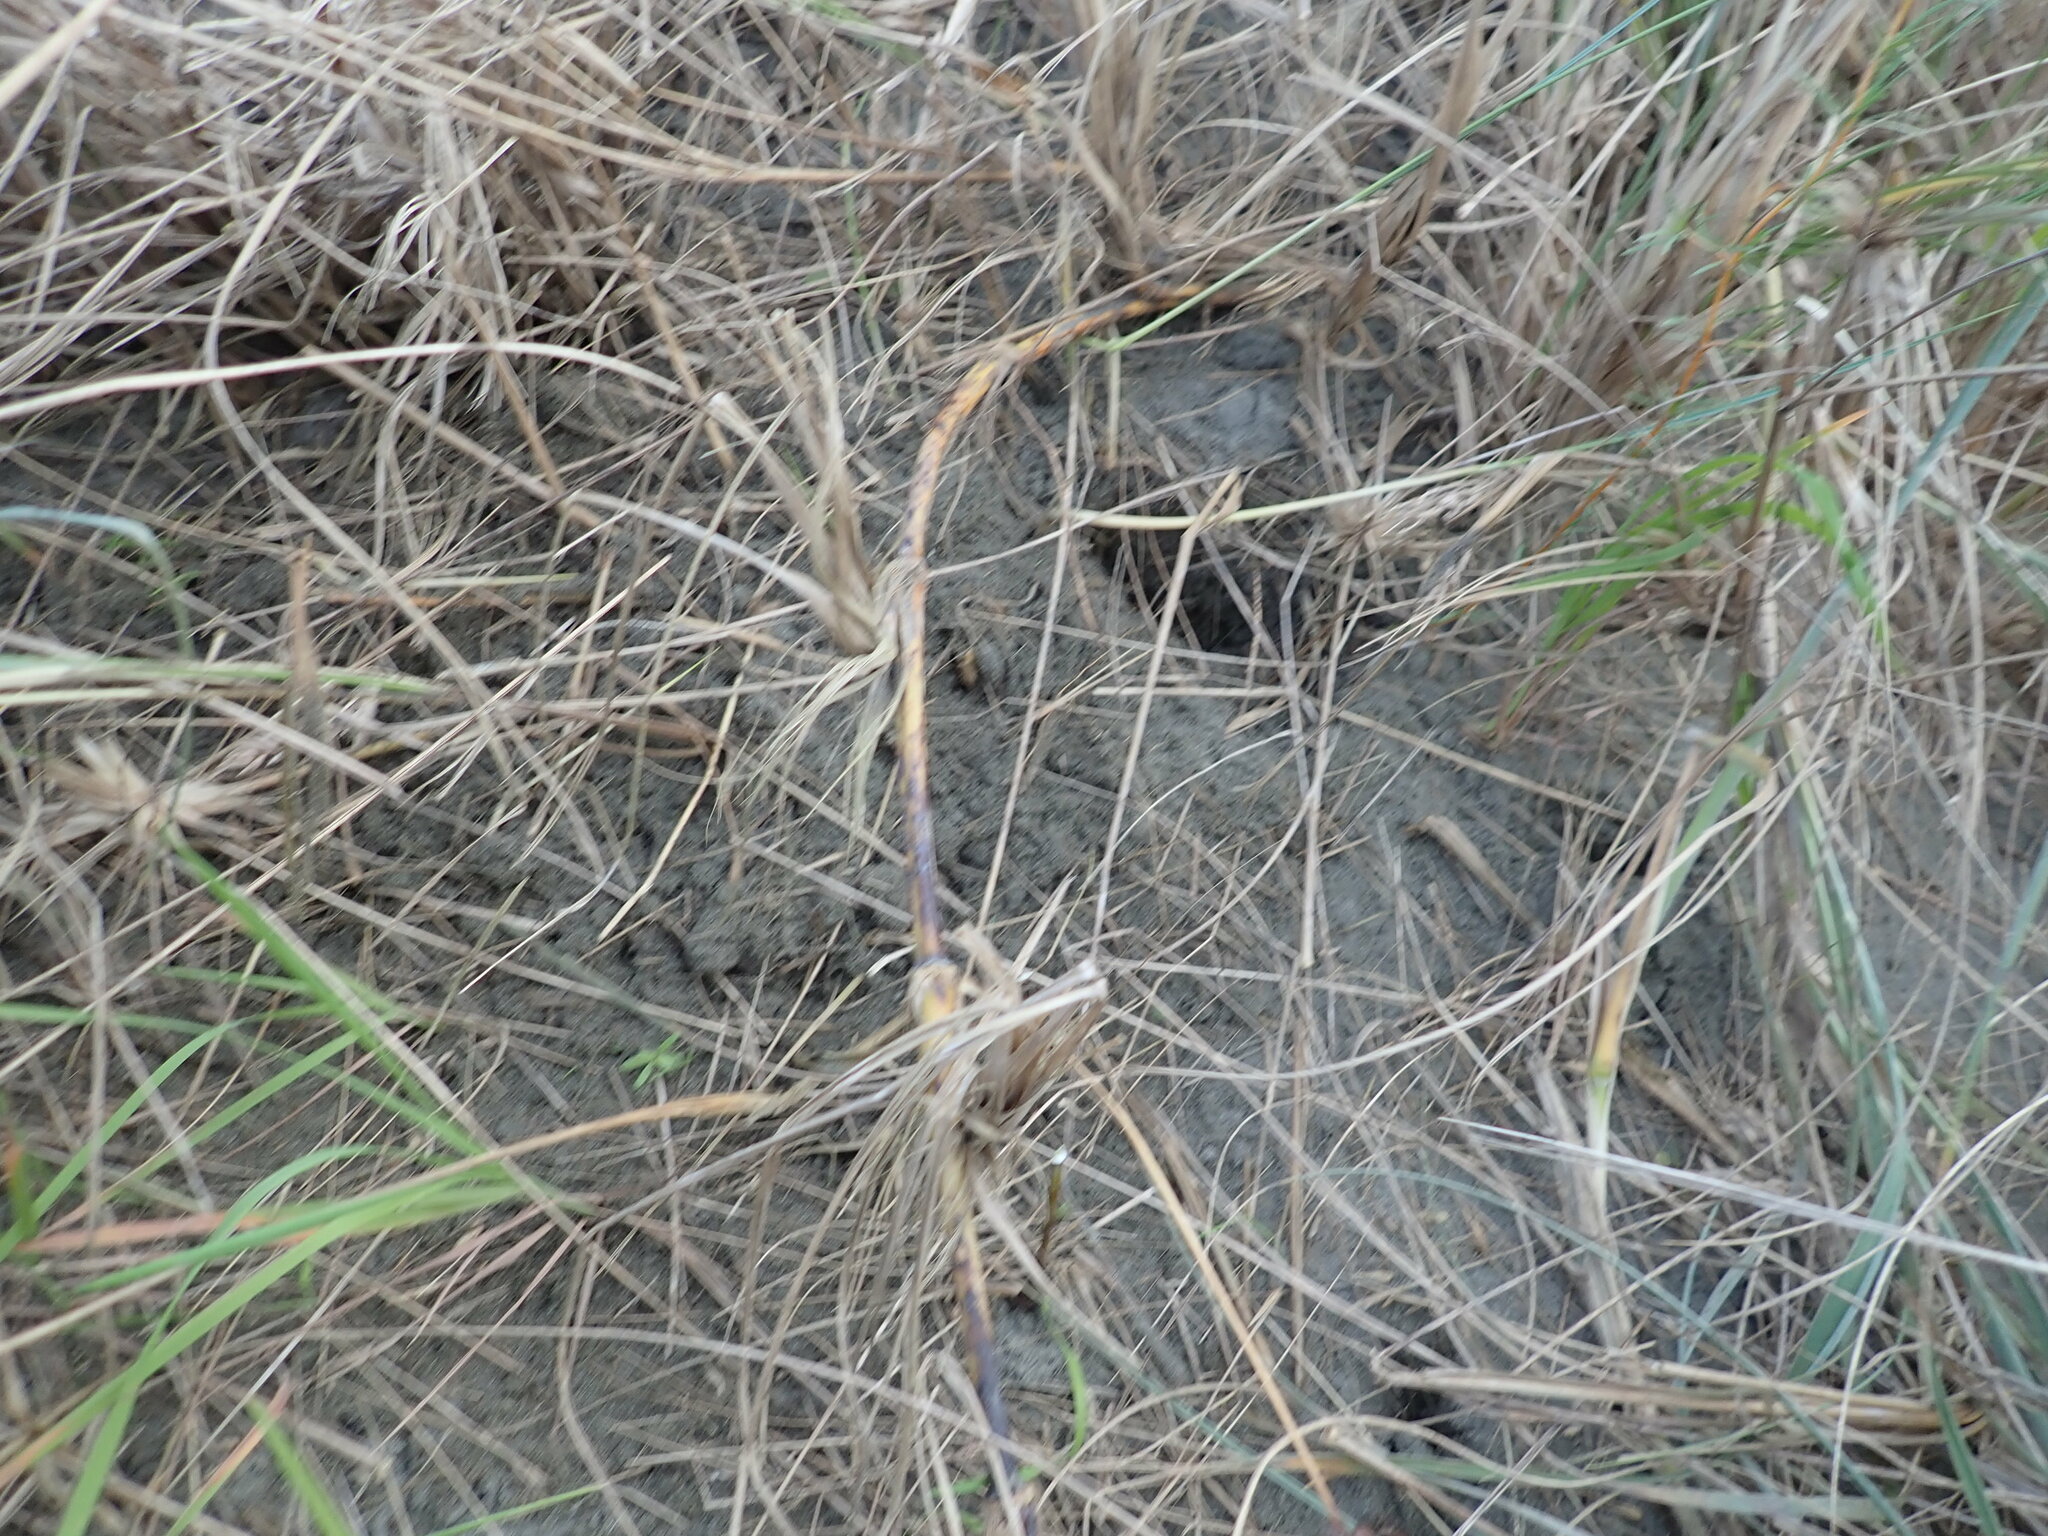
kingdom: Plantae
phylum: Tracheophyta
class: Magnoliopsida
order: Gentianales
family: Rubiaceae
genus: Coprosma
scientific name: Coprosma acerosa
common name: Sand coprosma
